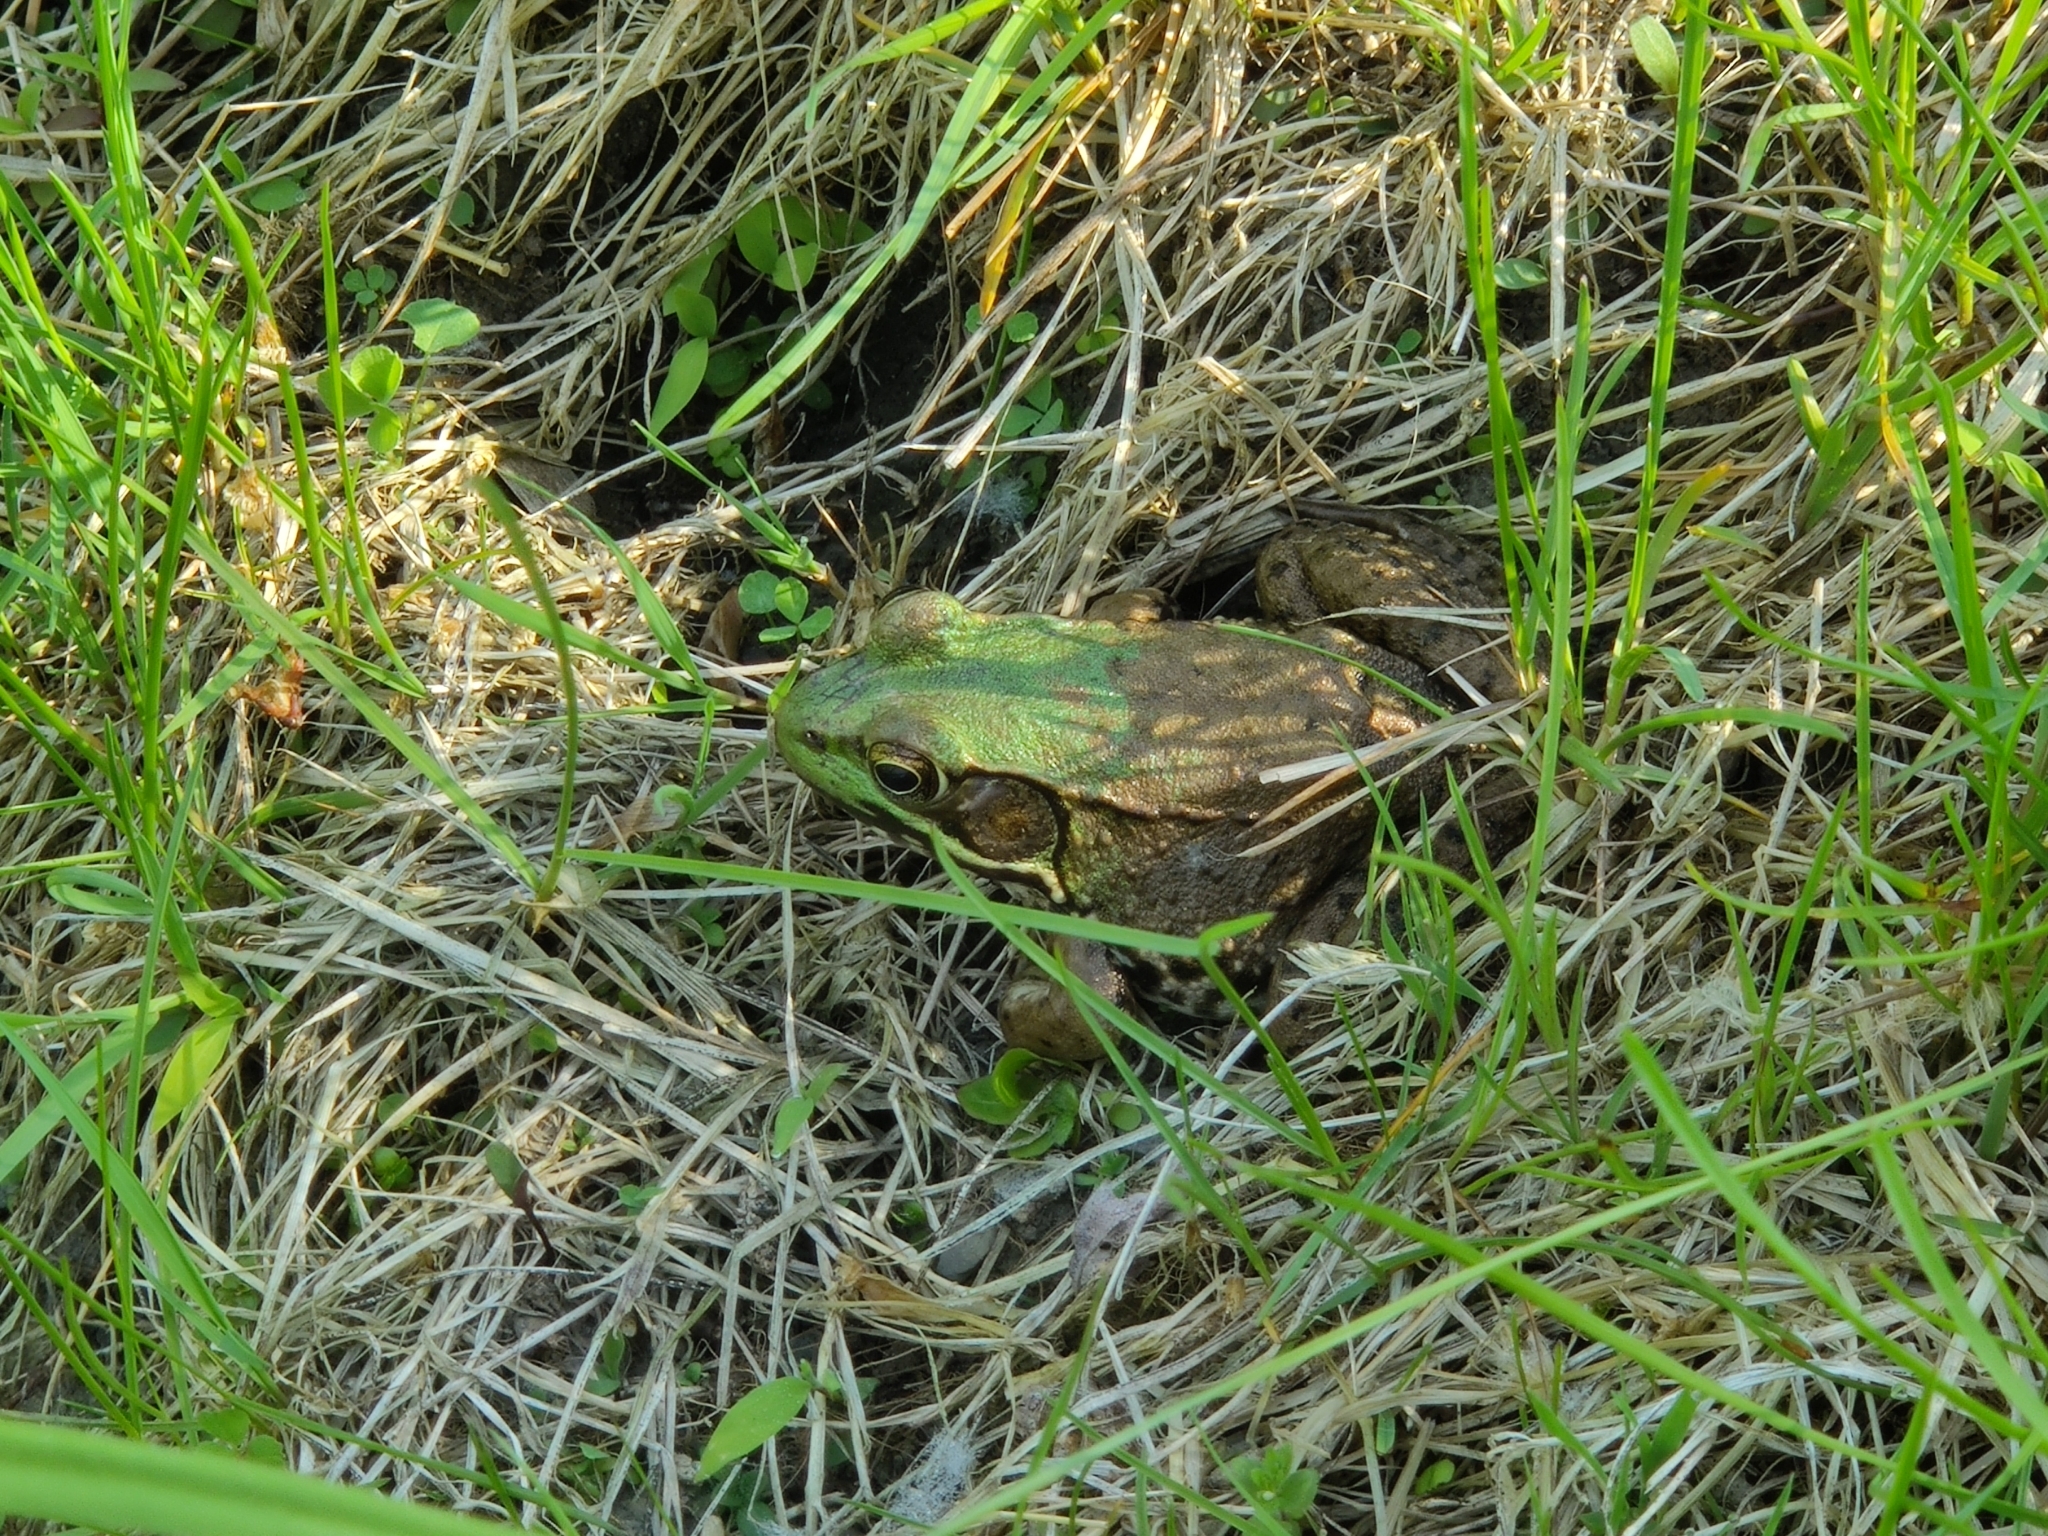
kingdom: Animalia
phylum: Chordata
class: Amphibia
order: Anura
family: Ranidae
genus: Lithobates
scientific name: Lithobates clamitans
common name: Green frog
